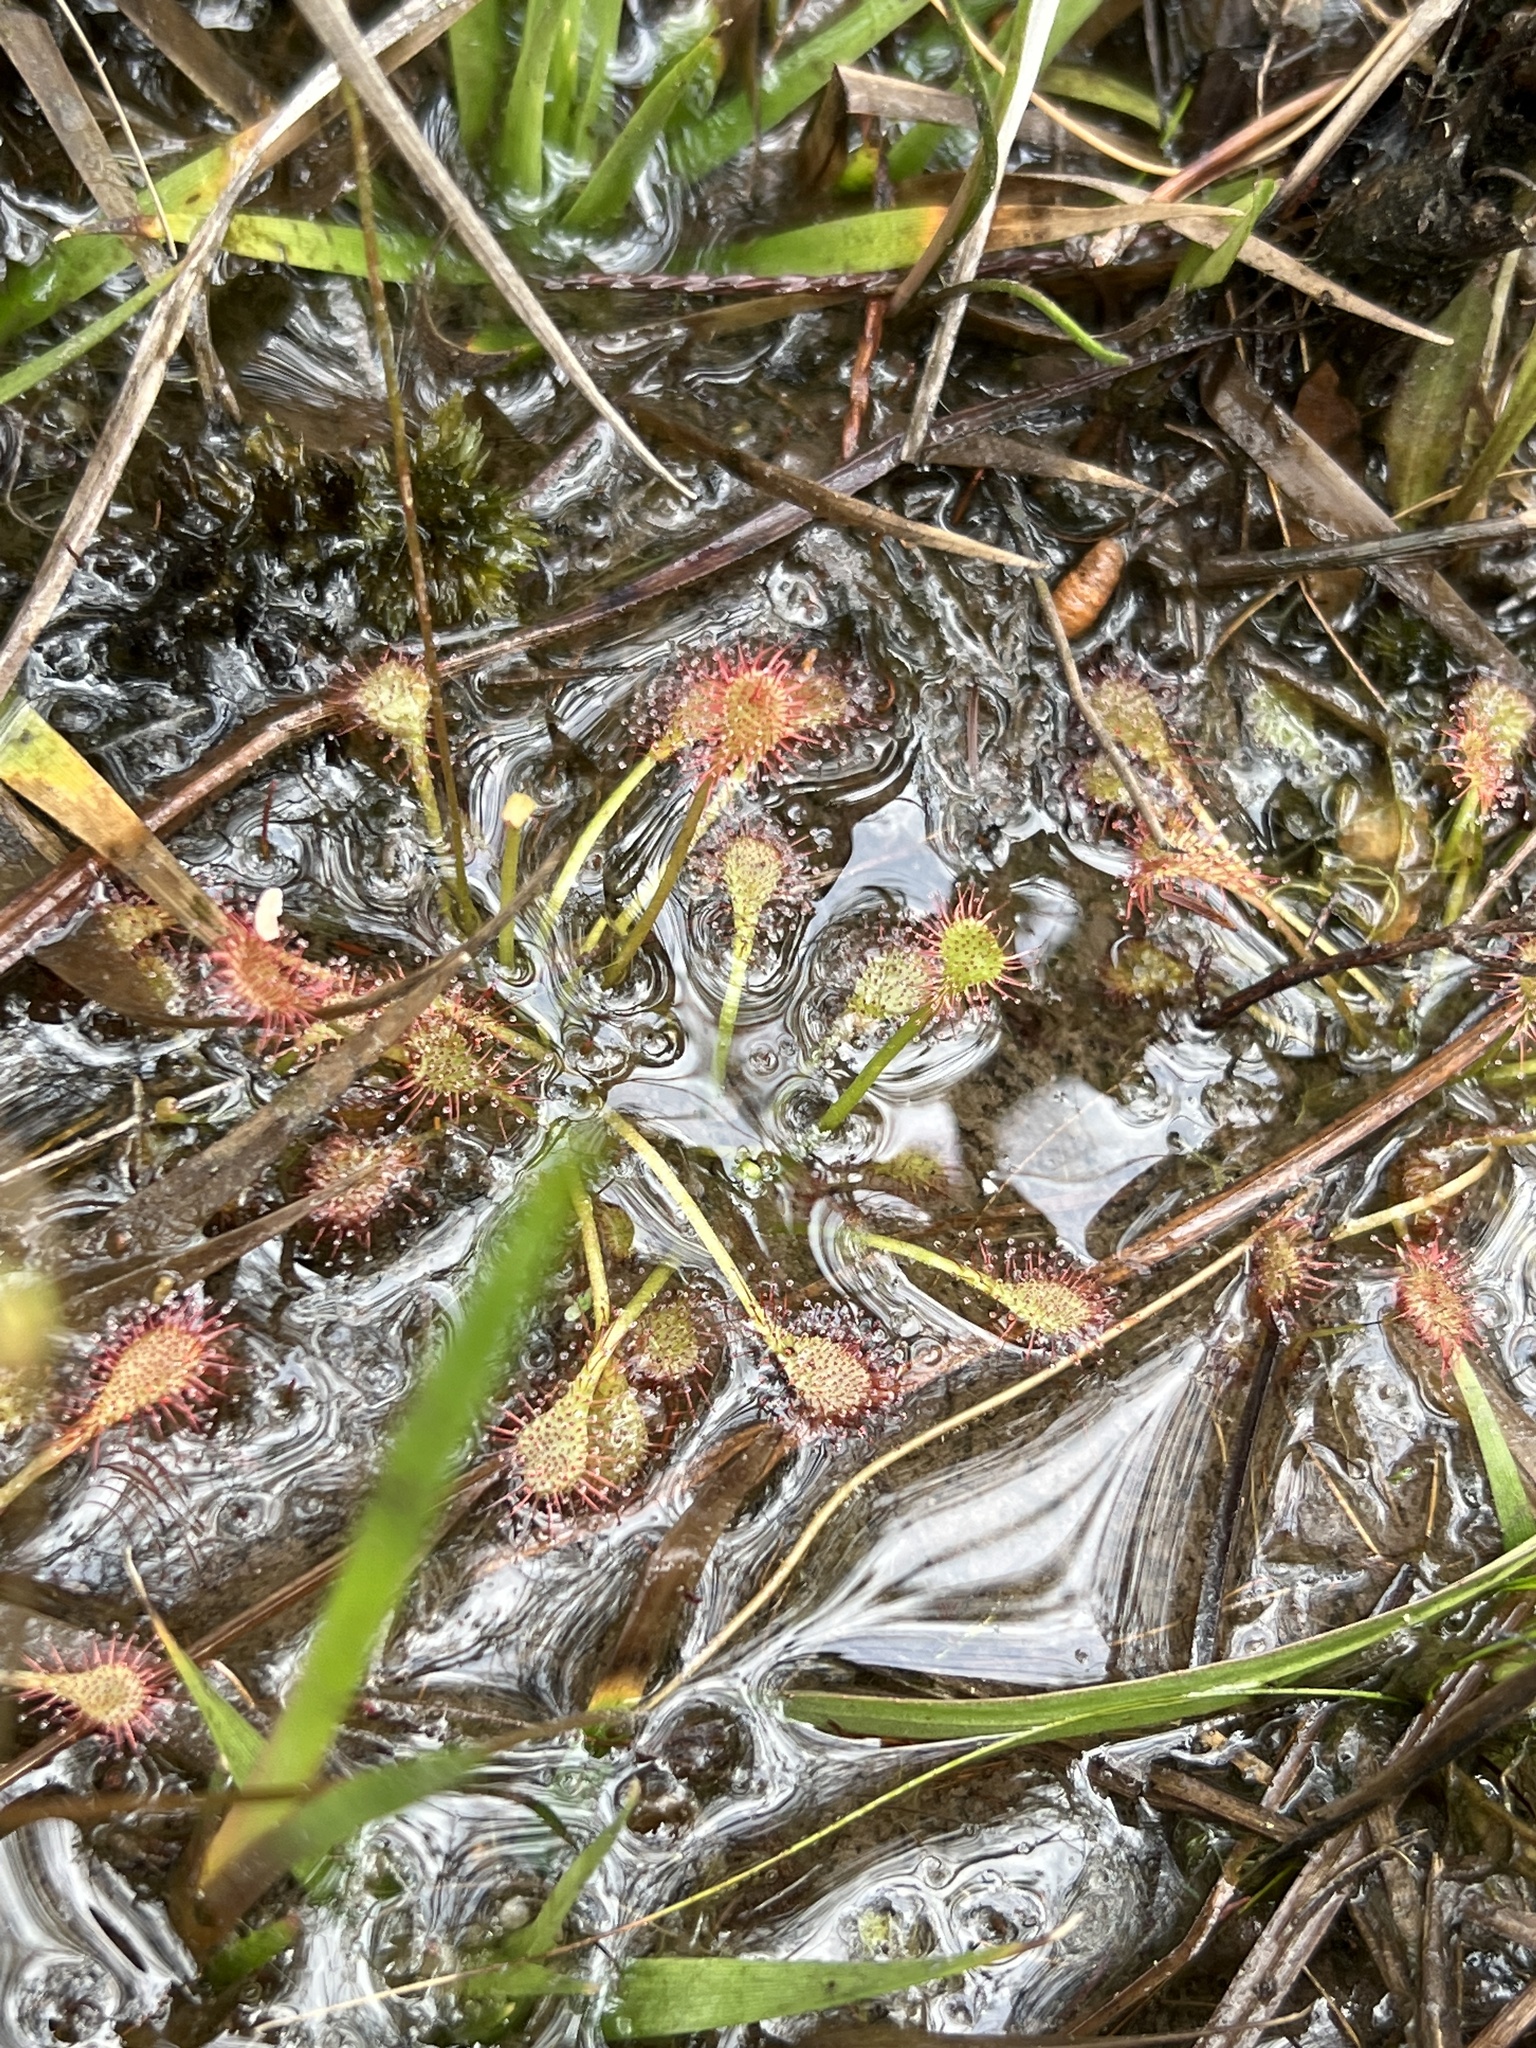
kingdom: Plantae
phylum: Tracheophyta
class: Magnoliopsida
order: Caryophyllales
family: Droseraceae
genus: Drosera
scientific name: Drosera intermedia
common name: Oblong-leaved sundew
